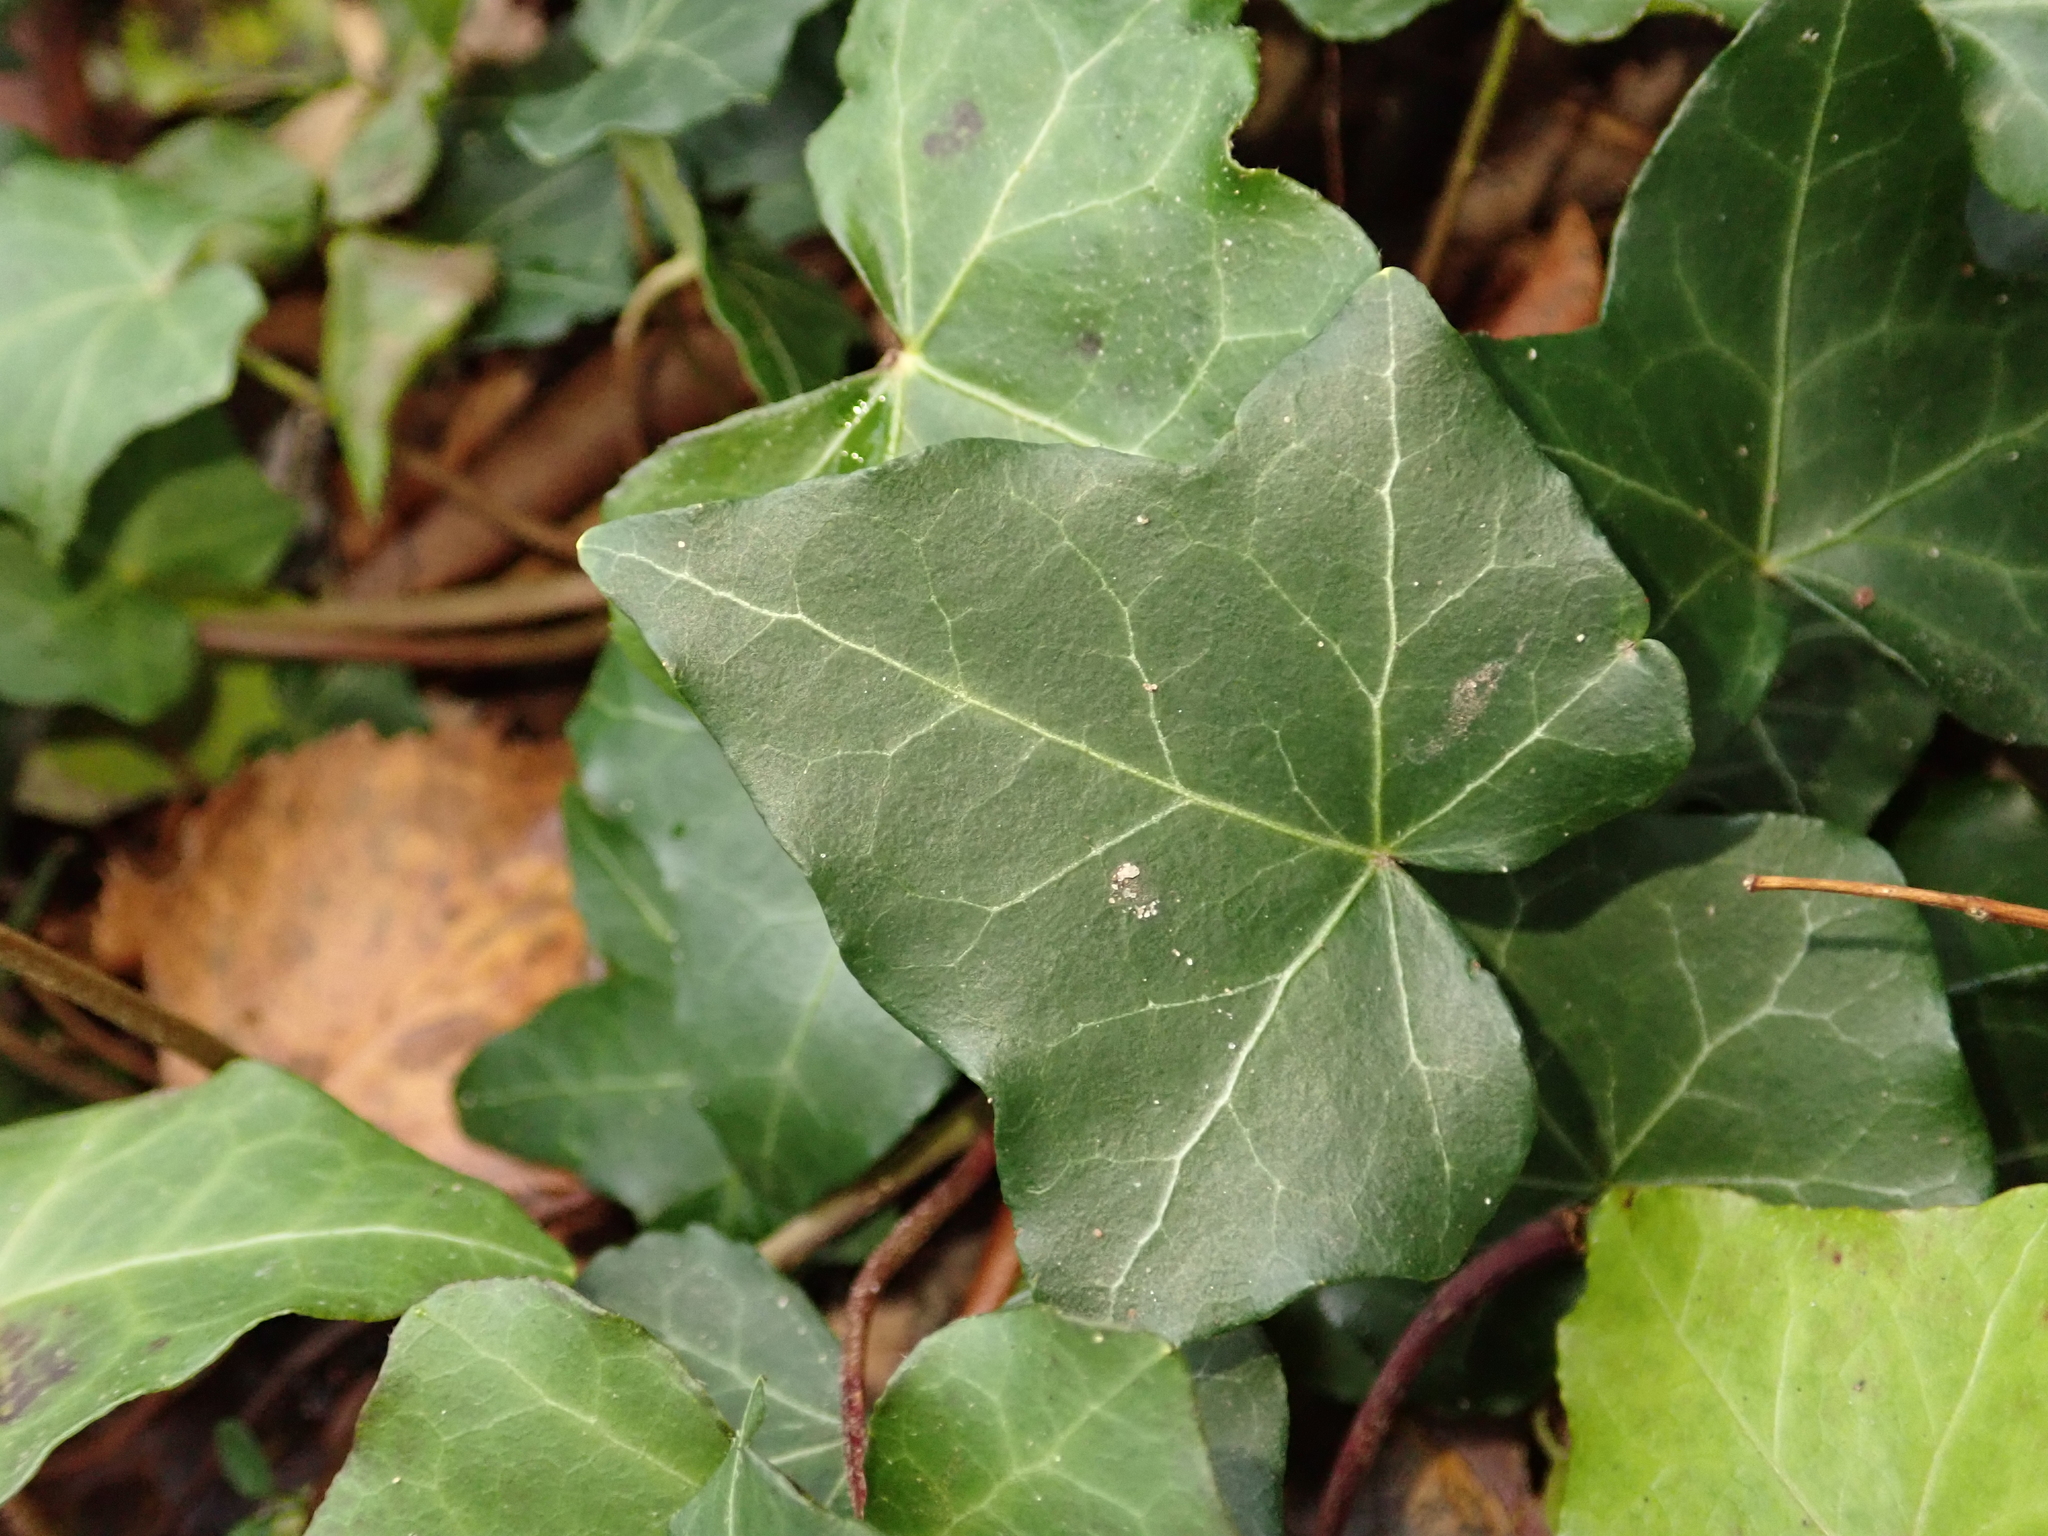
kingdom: Plantae
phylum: Tracheophyta
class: Magnoliopsida
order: Apiales
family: Araliaceae
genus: Hedera
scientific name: Hedera helix
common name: Ivy
